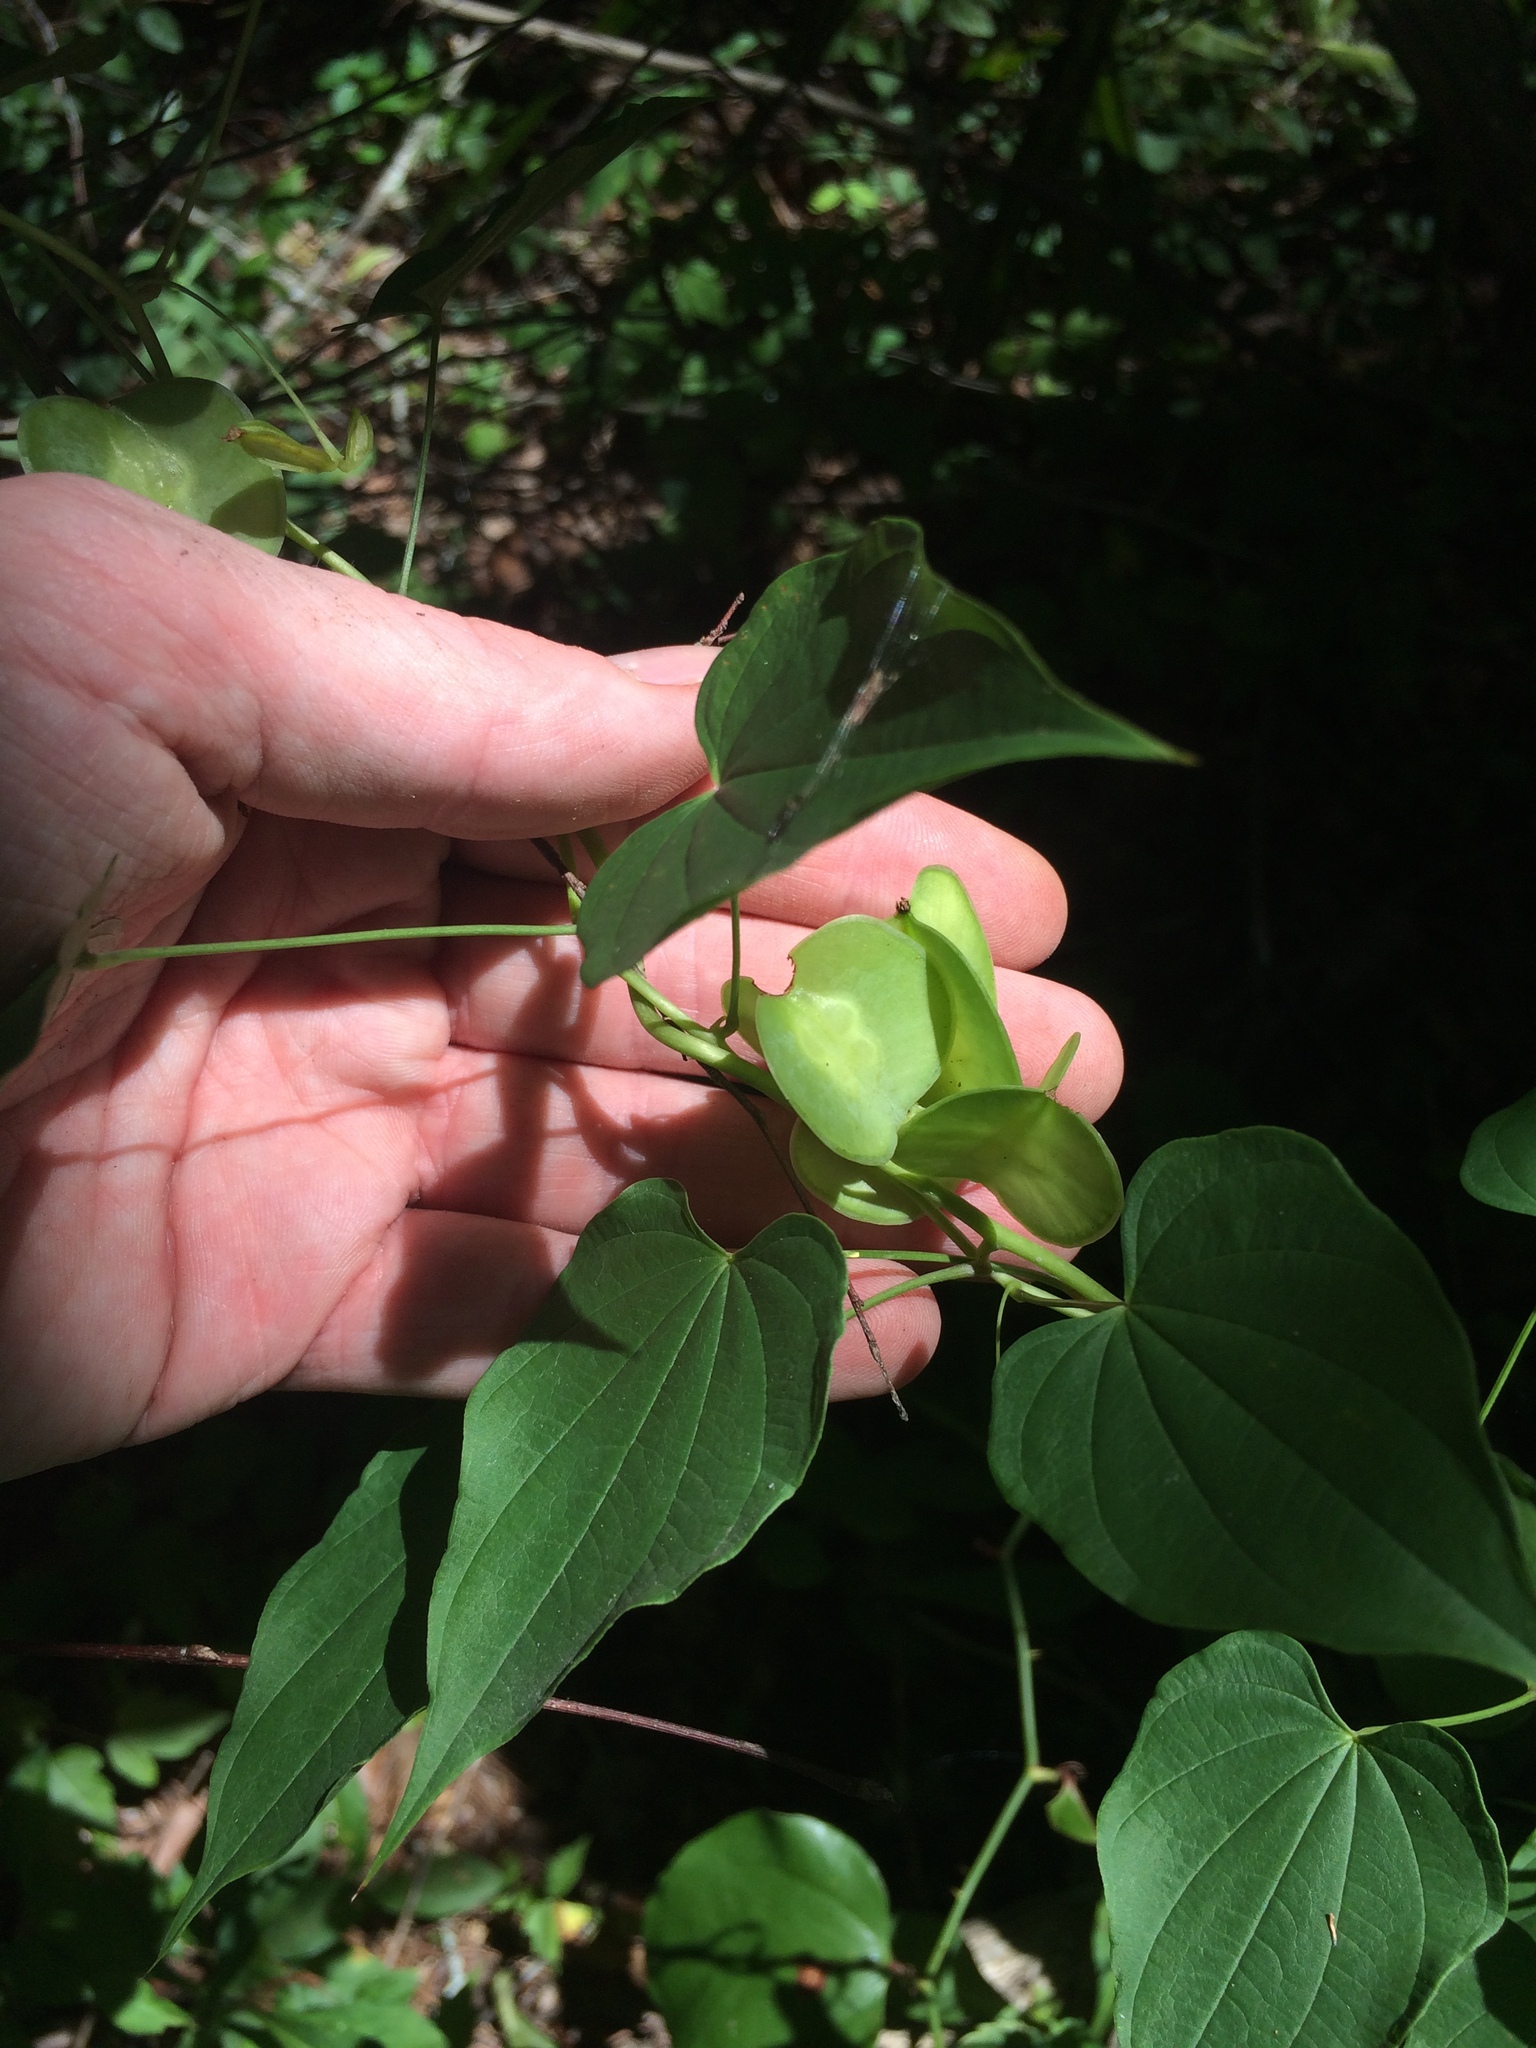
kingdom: Plantae
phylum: Tracheophyta
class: Liliopsida
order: Dioscoreales
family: Dioscoreaceae
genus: Dioscorea
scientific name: Dioscorea villosa
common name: Wild yam
